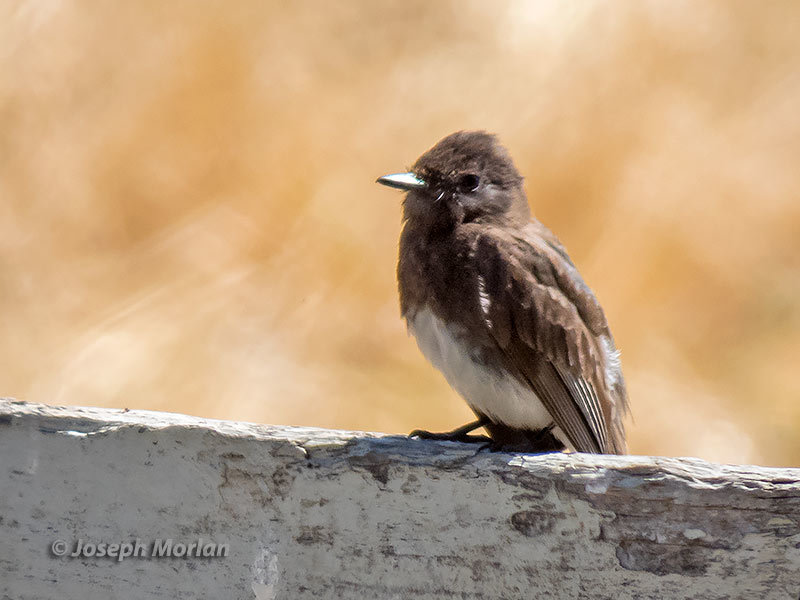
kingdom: Animalia
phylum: Chordata
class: Aves
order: Passeriformes
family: Tyrannidae
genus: Sayornis
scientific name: Sayornis nigricans
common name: Black phoebe
